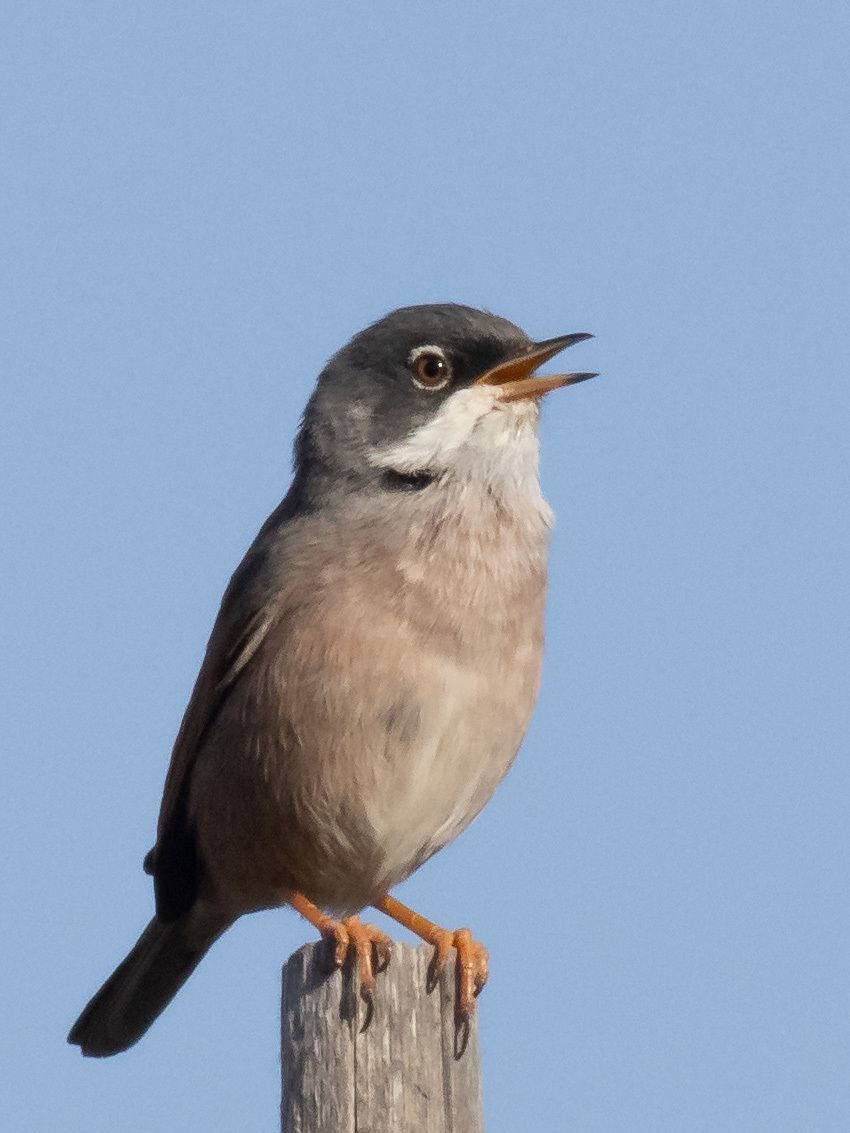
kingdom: Animalia
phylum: Chordata
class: Aves
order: Passeriformes
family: Sylviidae
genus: Sylvia
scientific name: Sylvia conspicillata
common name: Spectacled warbler
